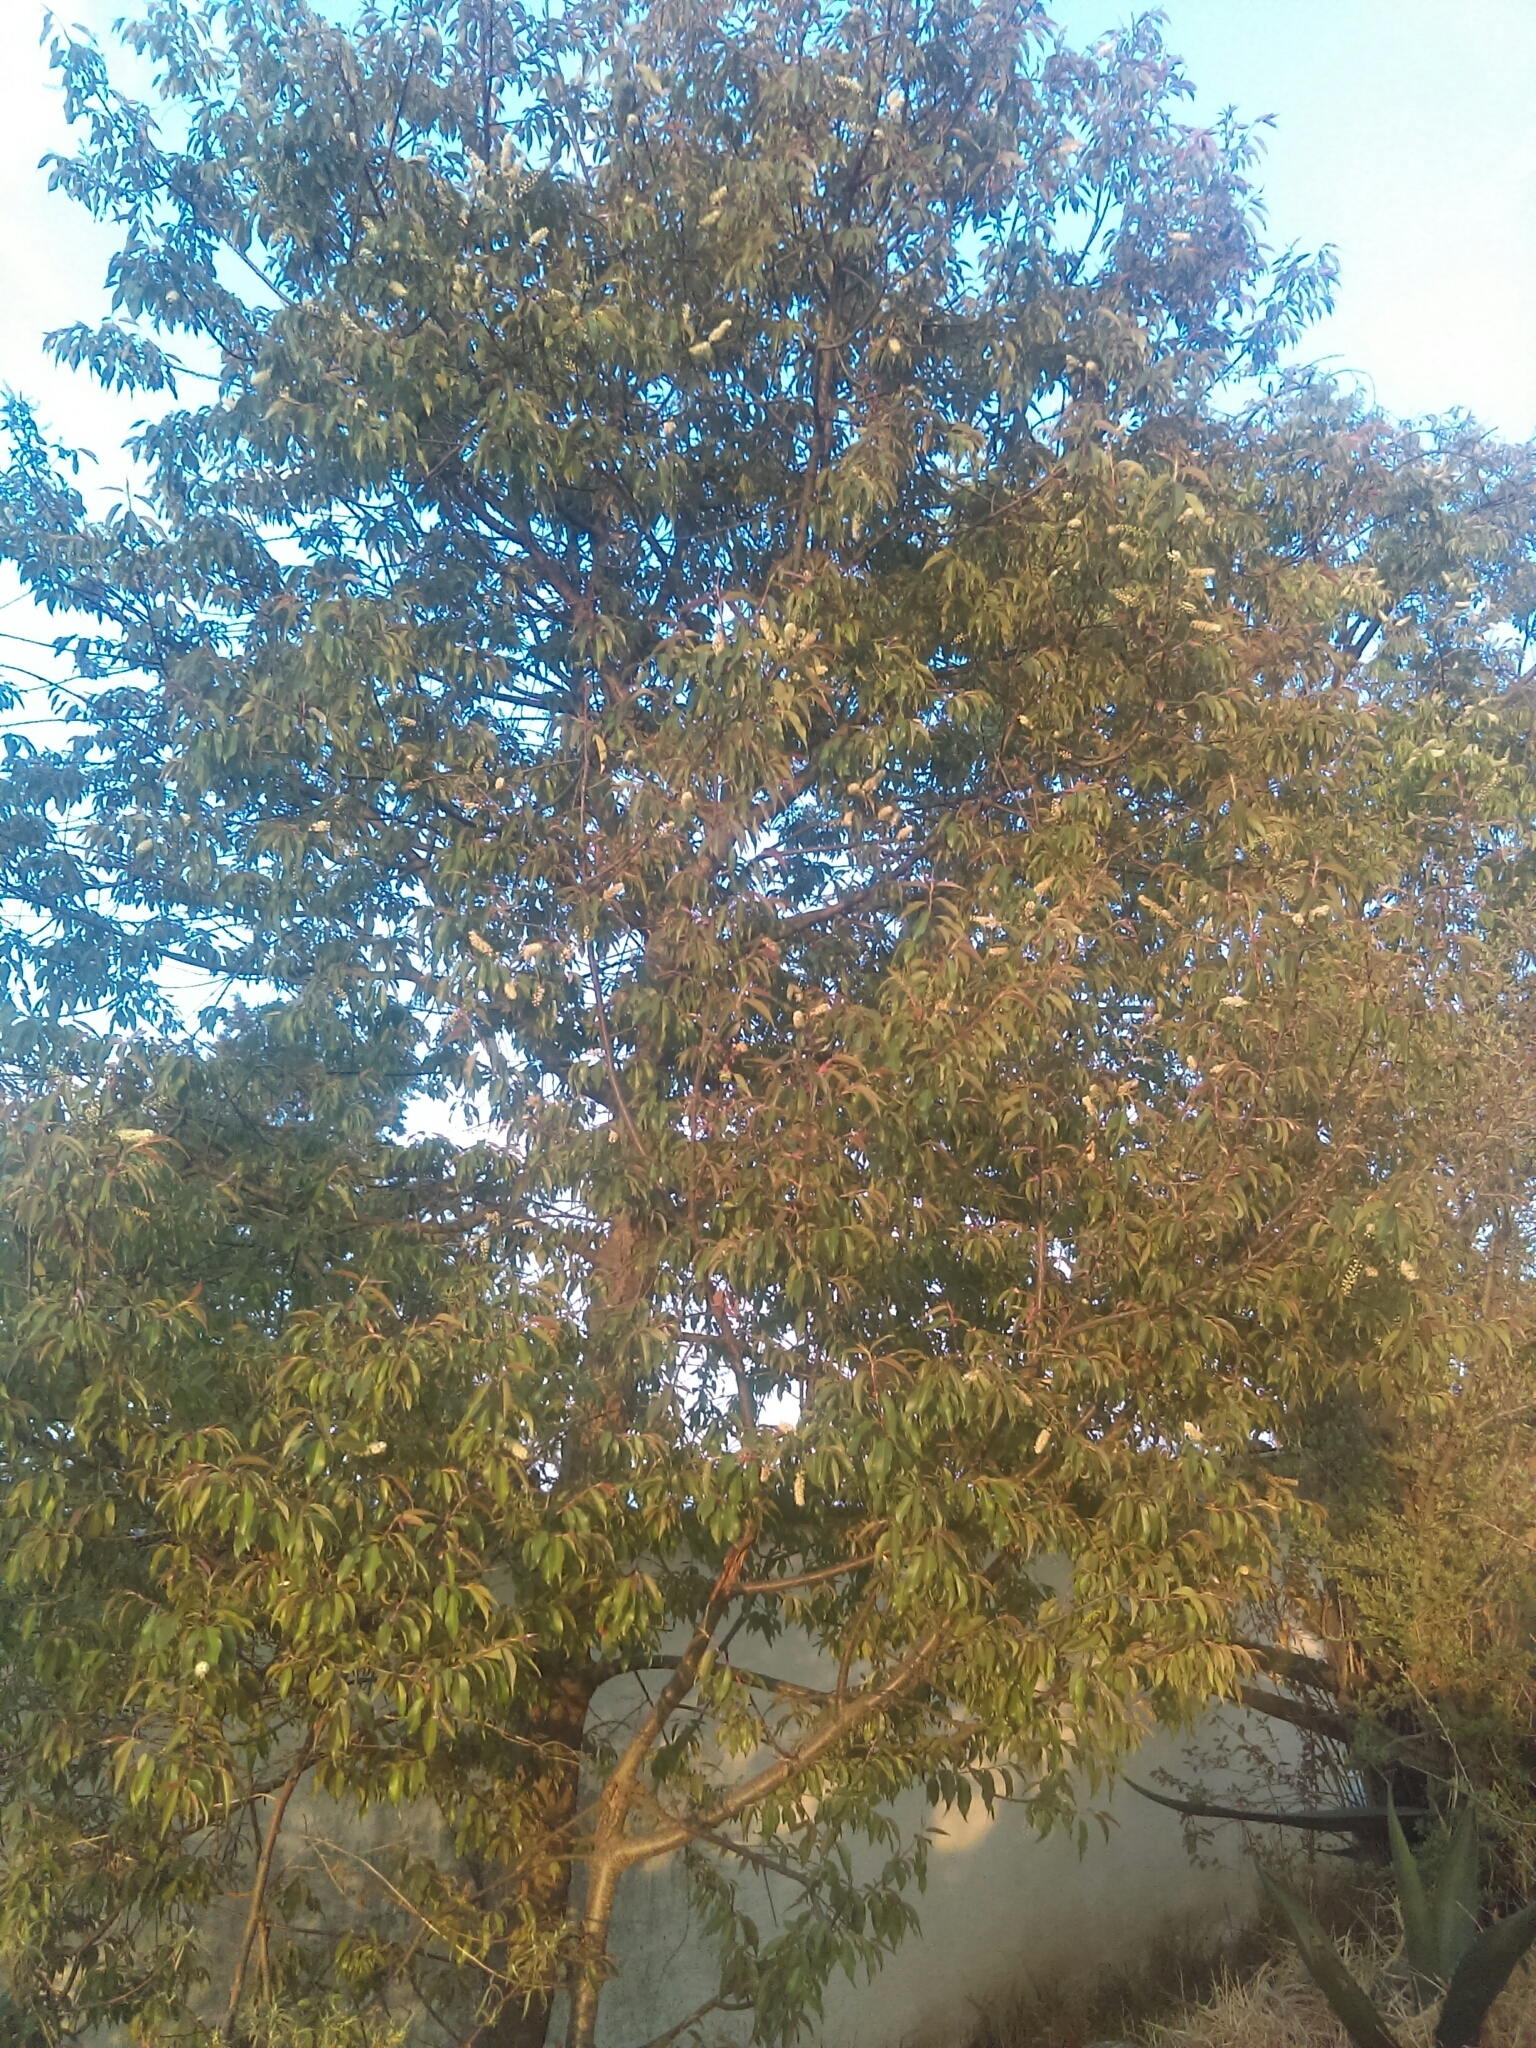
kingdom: Plantae
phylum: Tracheophyta
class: Magnoliopsida
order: Rosales
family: Rosaceae
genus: Prunus
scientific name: Prunus serotina
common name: Black cherry
